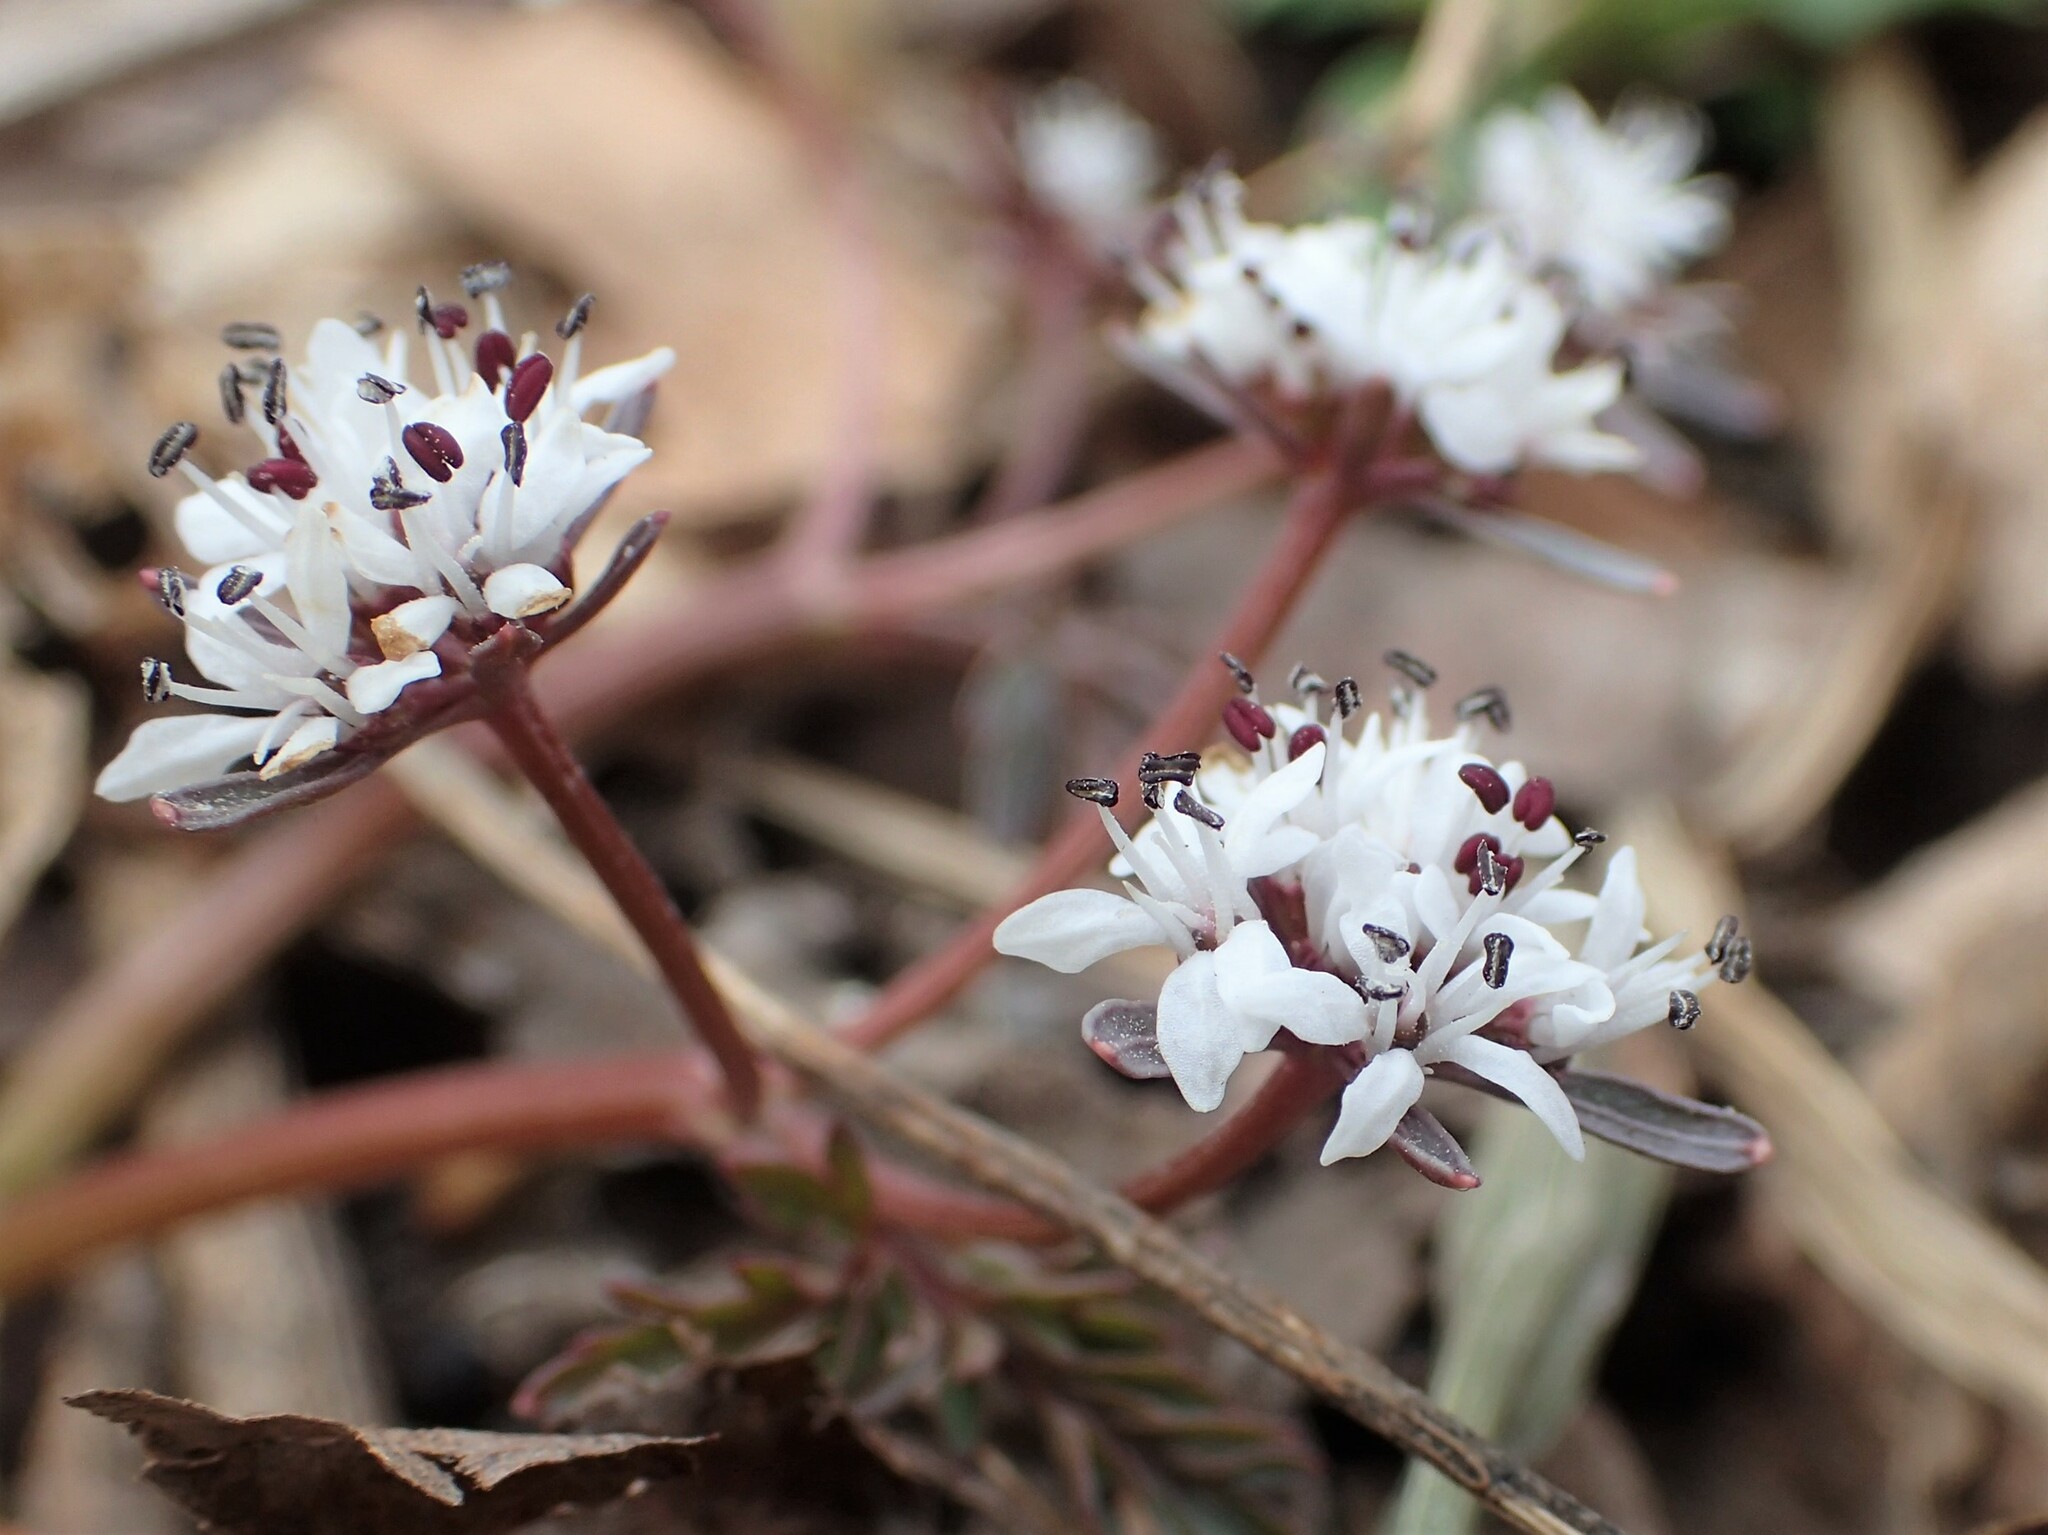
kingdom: Plantae
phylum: Tracheophyta
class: Magnoliopsida
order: Apiales
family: Apiaceae
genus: Erigenia
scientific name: Erigenia bulbosa
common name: Pepper-and-salt
